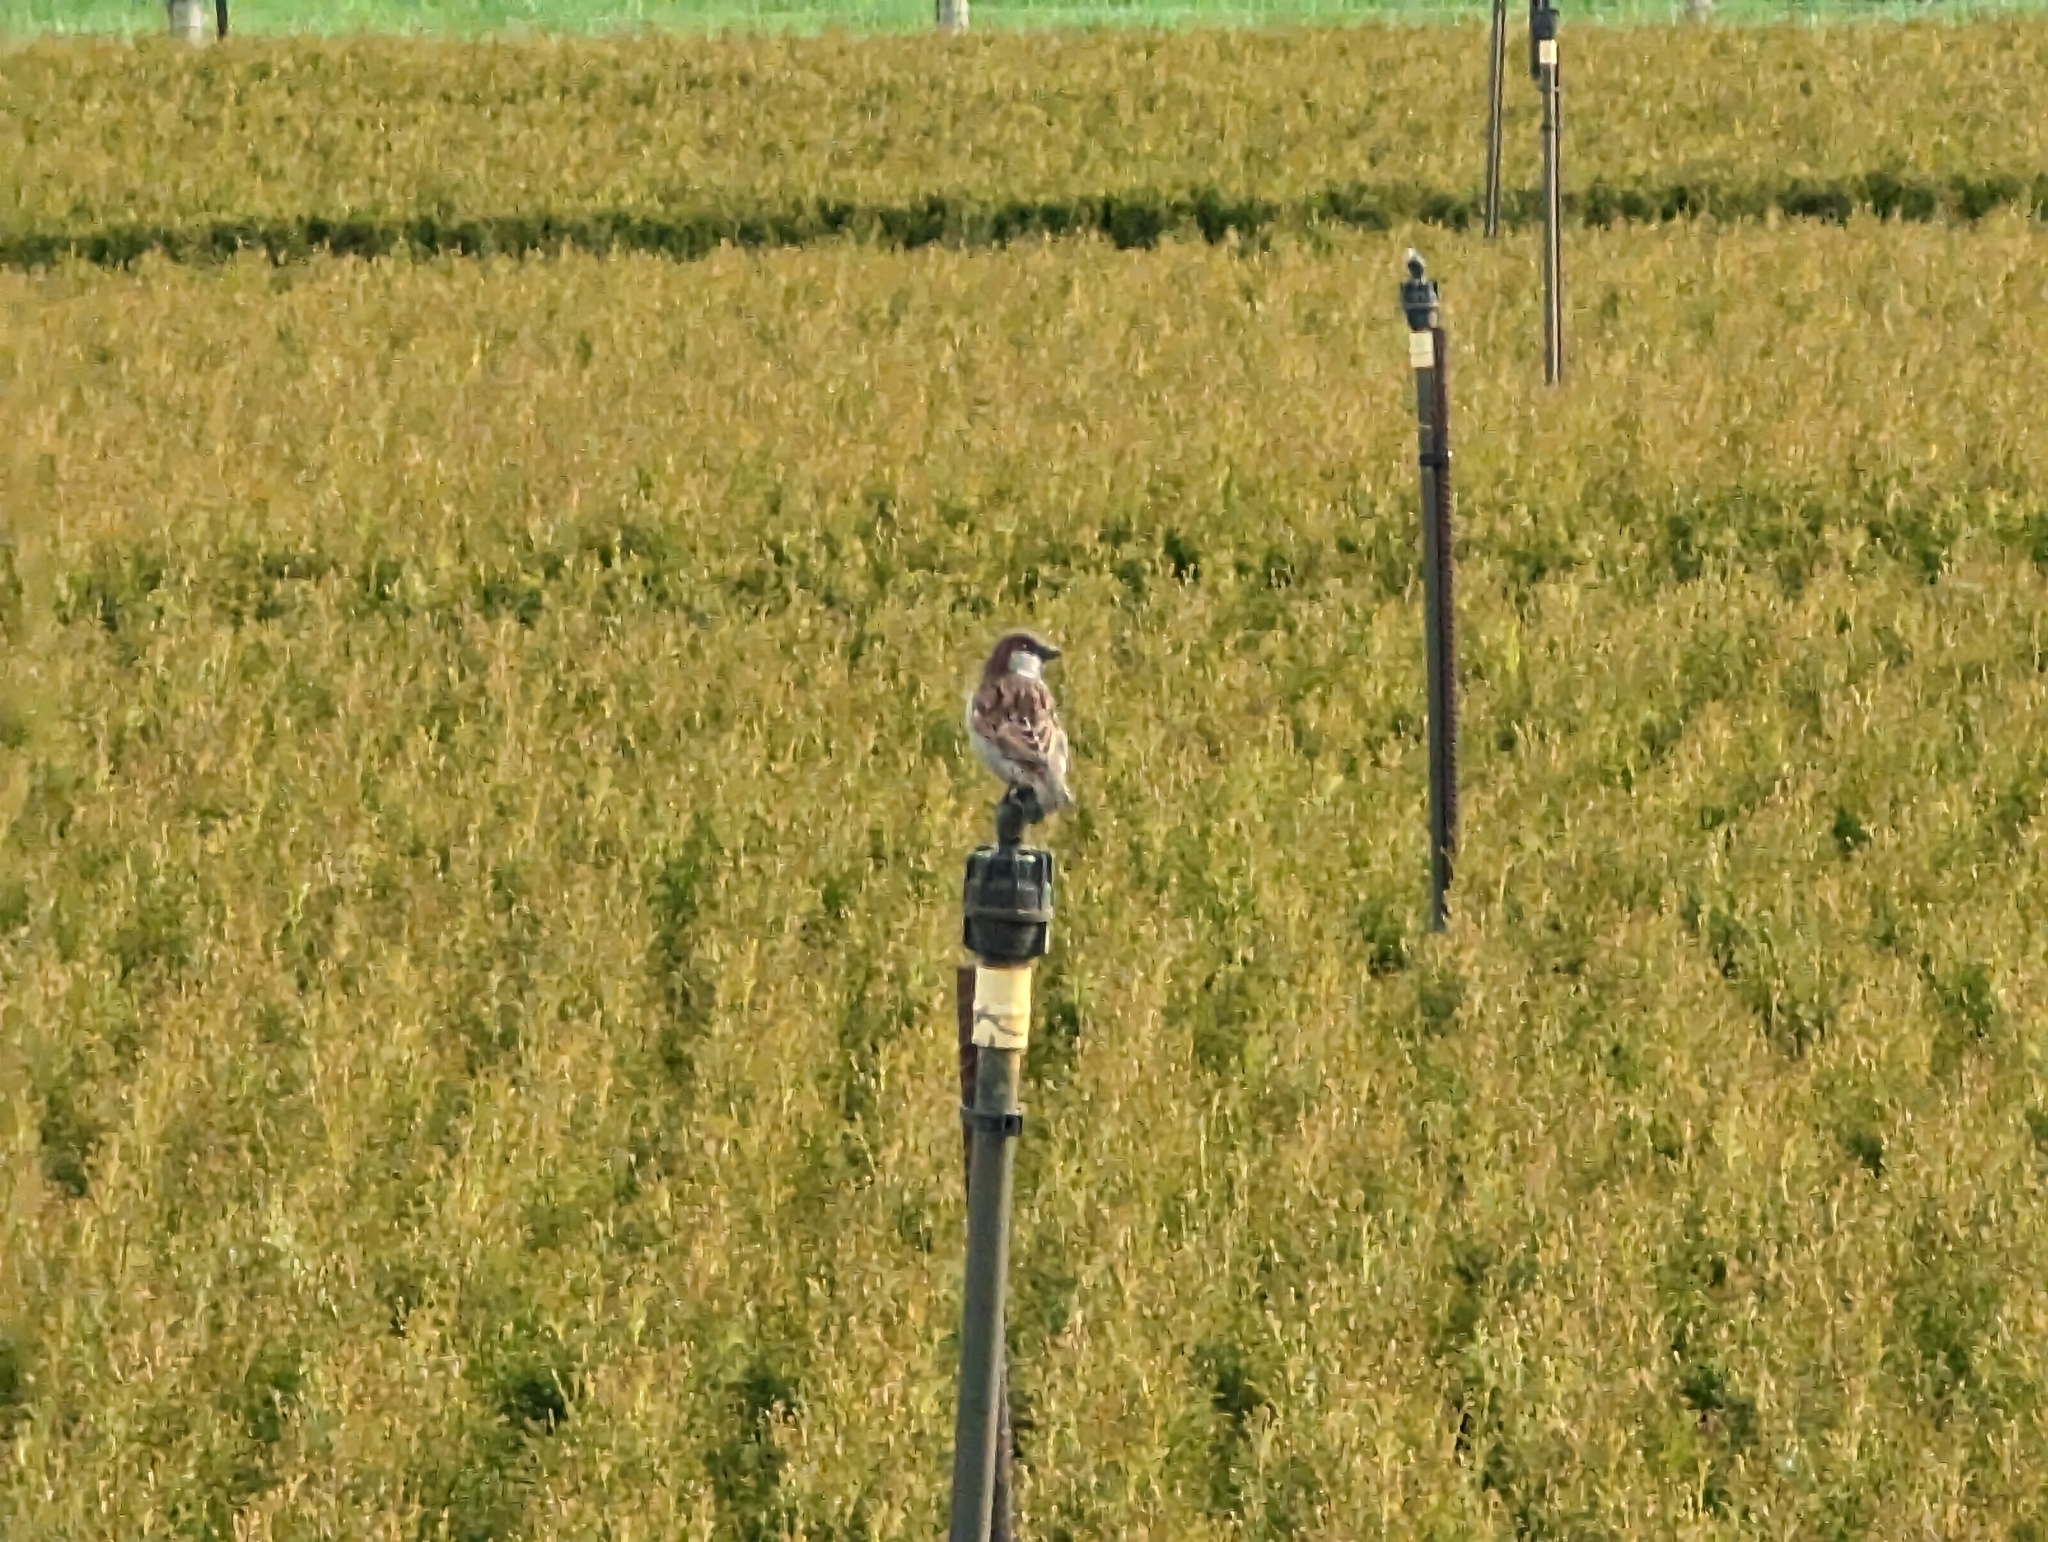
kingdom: Animalia
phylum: Chordata
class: Aves
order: Passeriformes
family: Passeridae
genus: Passer
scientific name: Passer domesticus
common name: House sparrow
